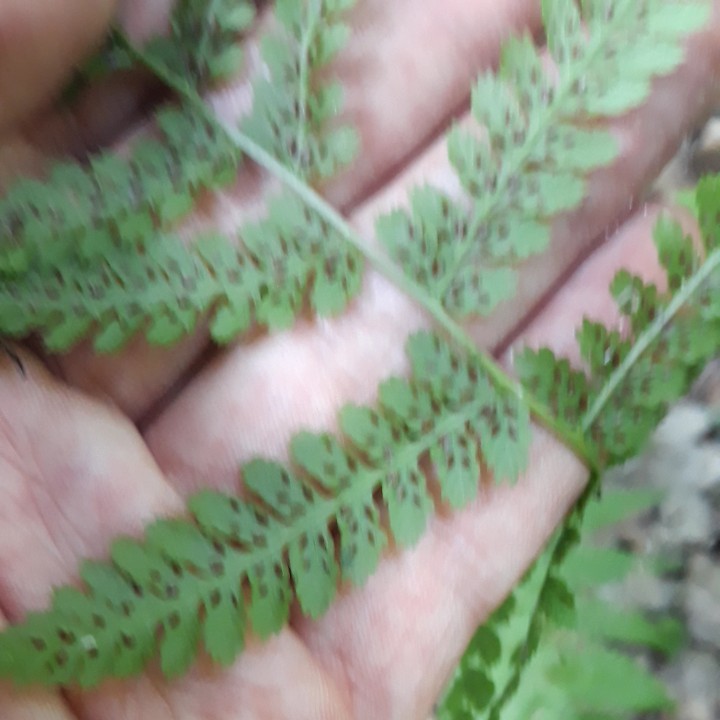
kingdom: Plantae
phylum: Tracheophyta
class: Polypodiopsida
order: Polypodiales
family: Athyriaceae
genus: Athyrium
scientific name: Athyrium filix-femina
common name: Lady fern
